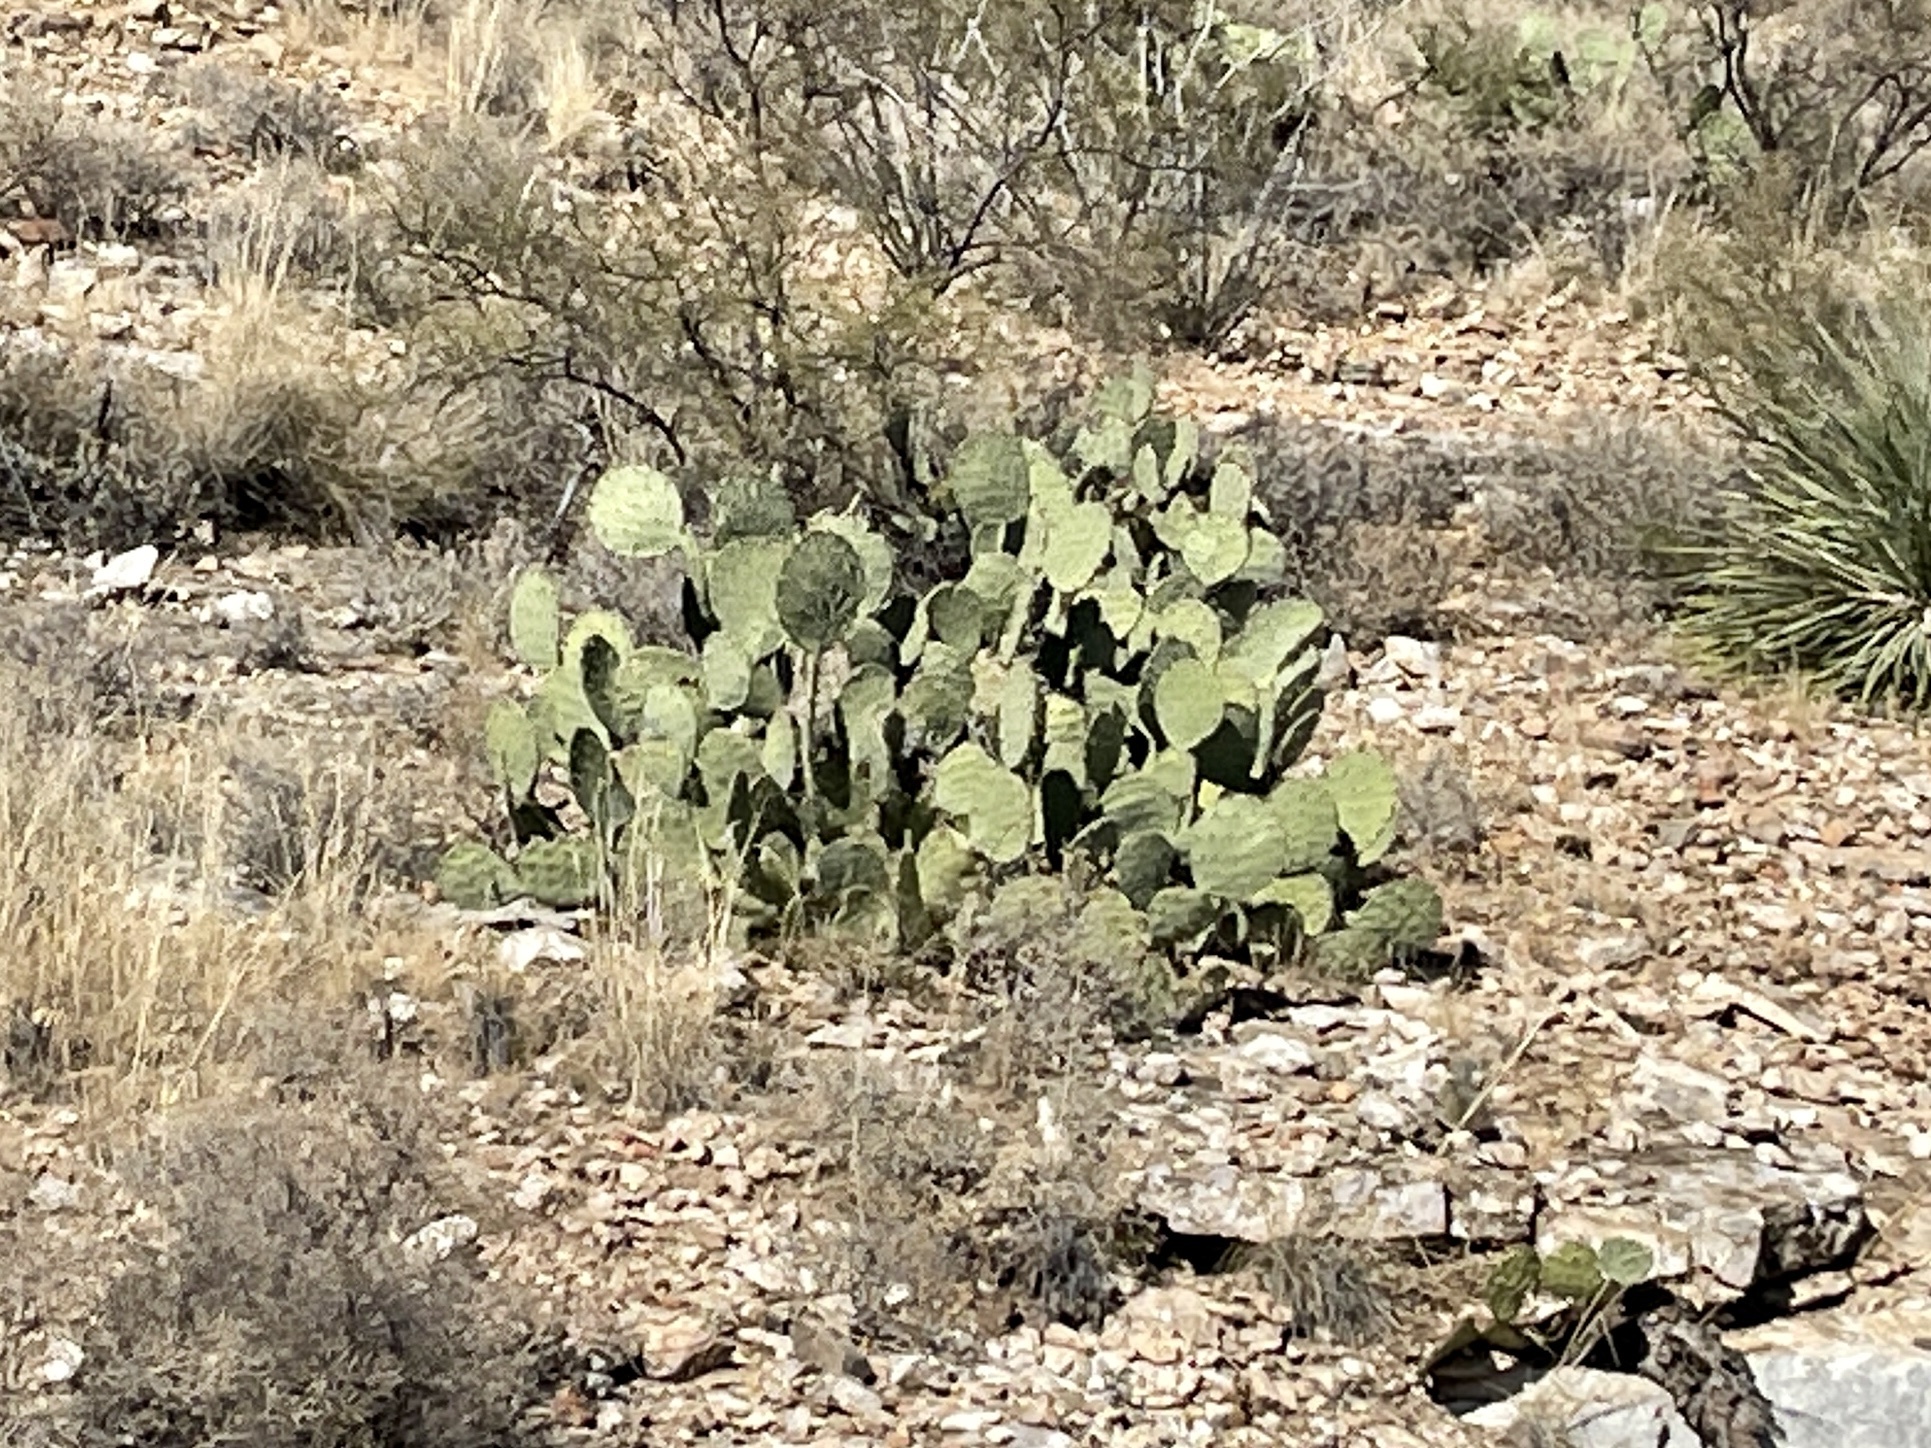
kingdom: Plantae
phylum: Tracheophyta
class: Magnoliopsida
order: Caryophyllales
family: Cactaceae
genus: Opuntia
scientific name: Opuntia engelmannii
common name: Cactus-apple
